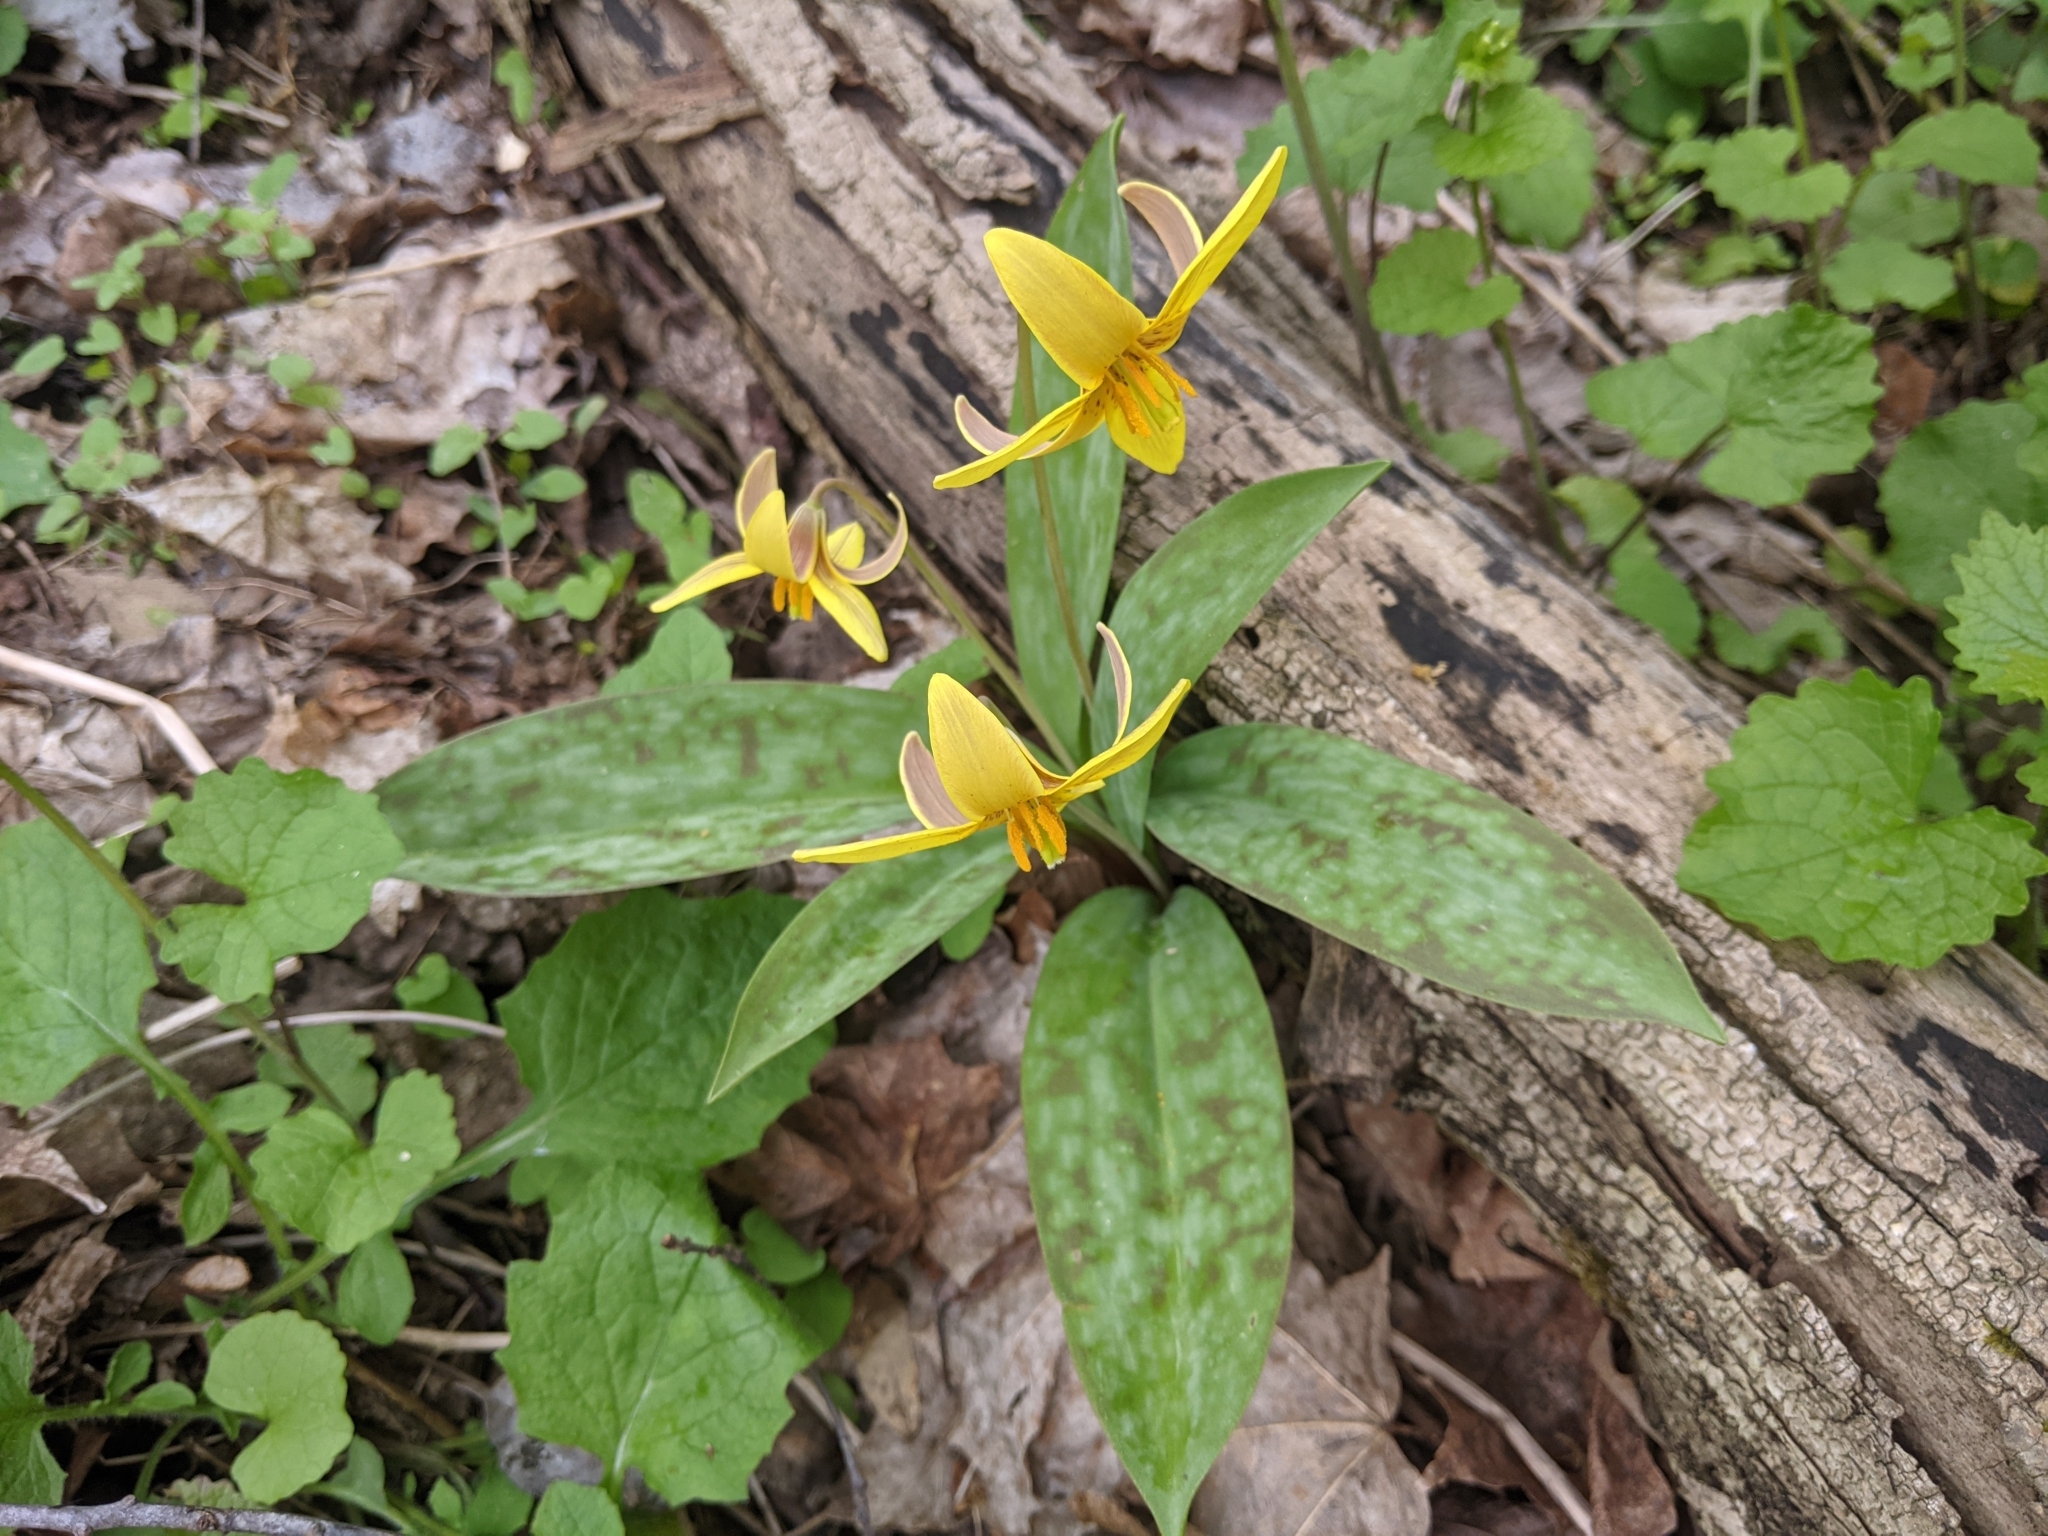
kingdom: Plantae
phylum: Tracheophyta
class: Liliopsida
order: Liliales
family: Liliaceae
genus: Erythronium
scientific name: Erythronium americanum
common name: Yellow adder's-tongue
